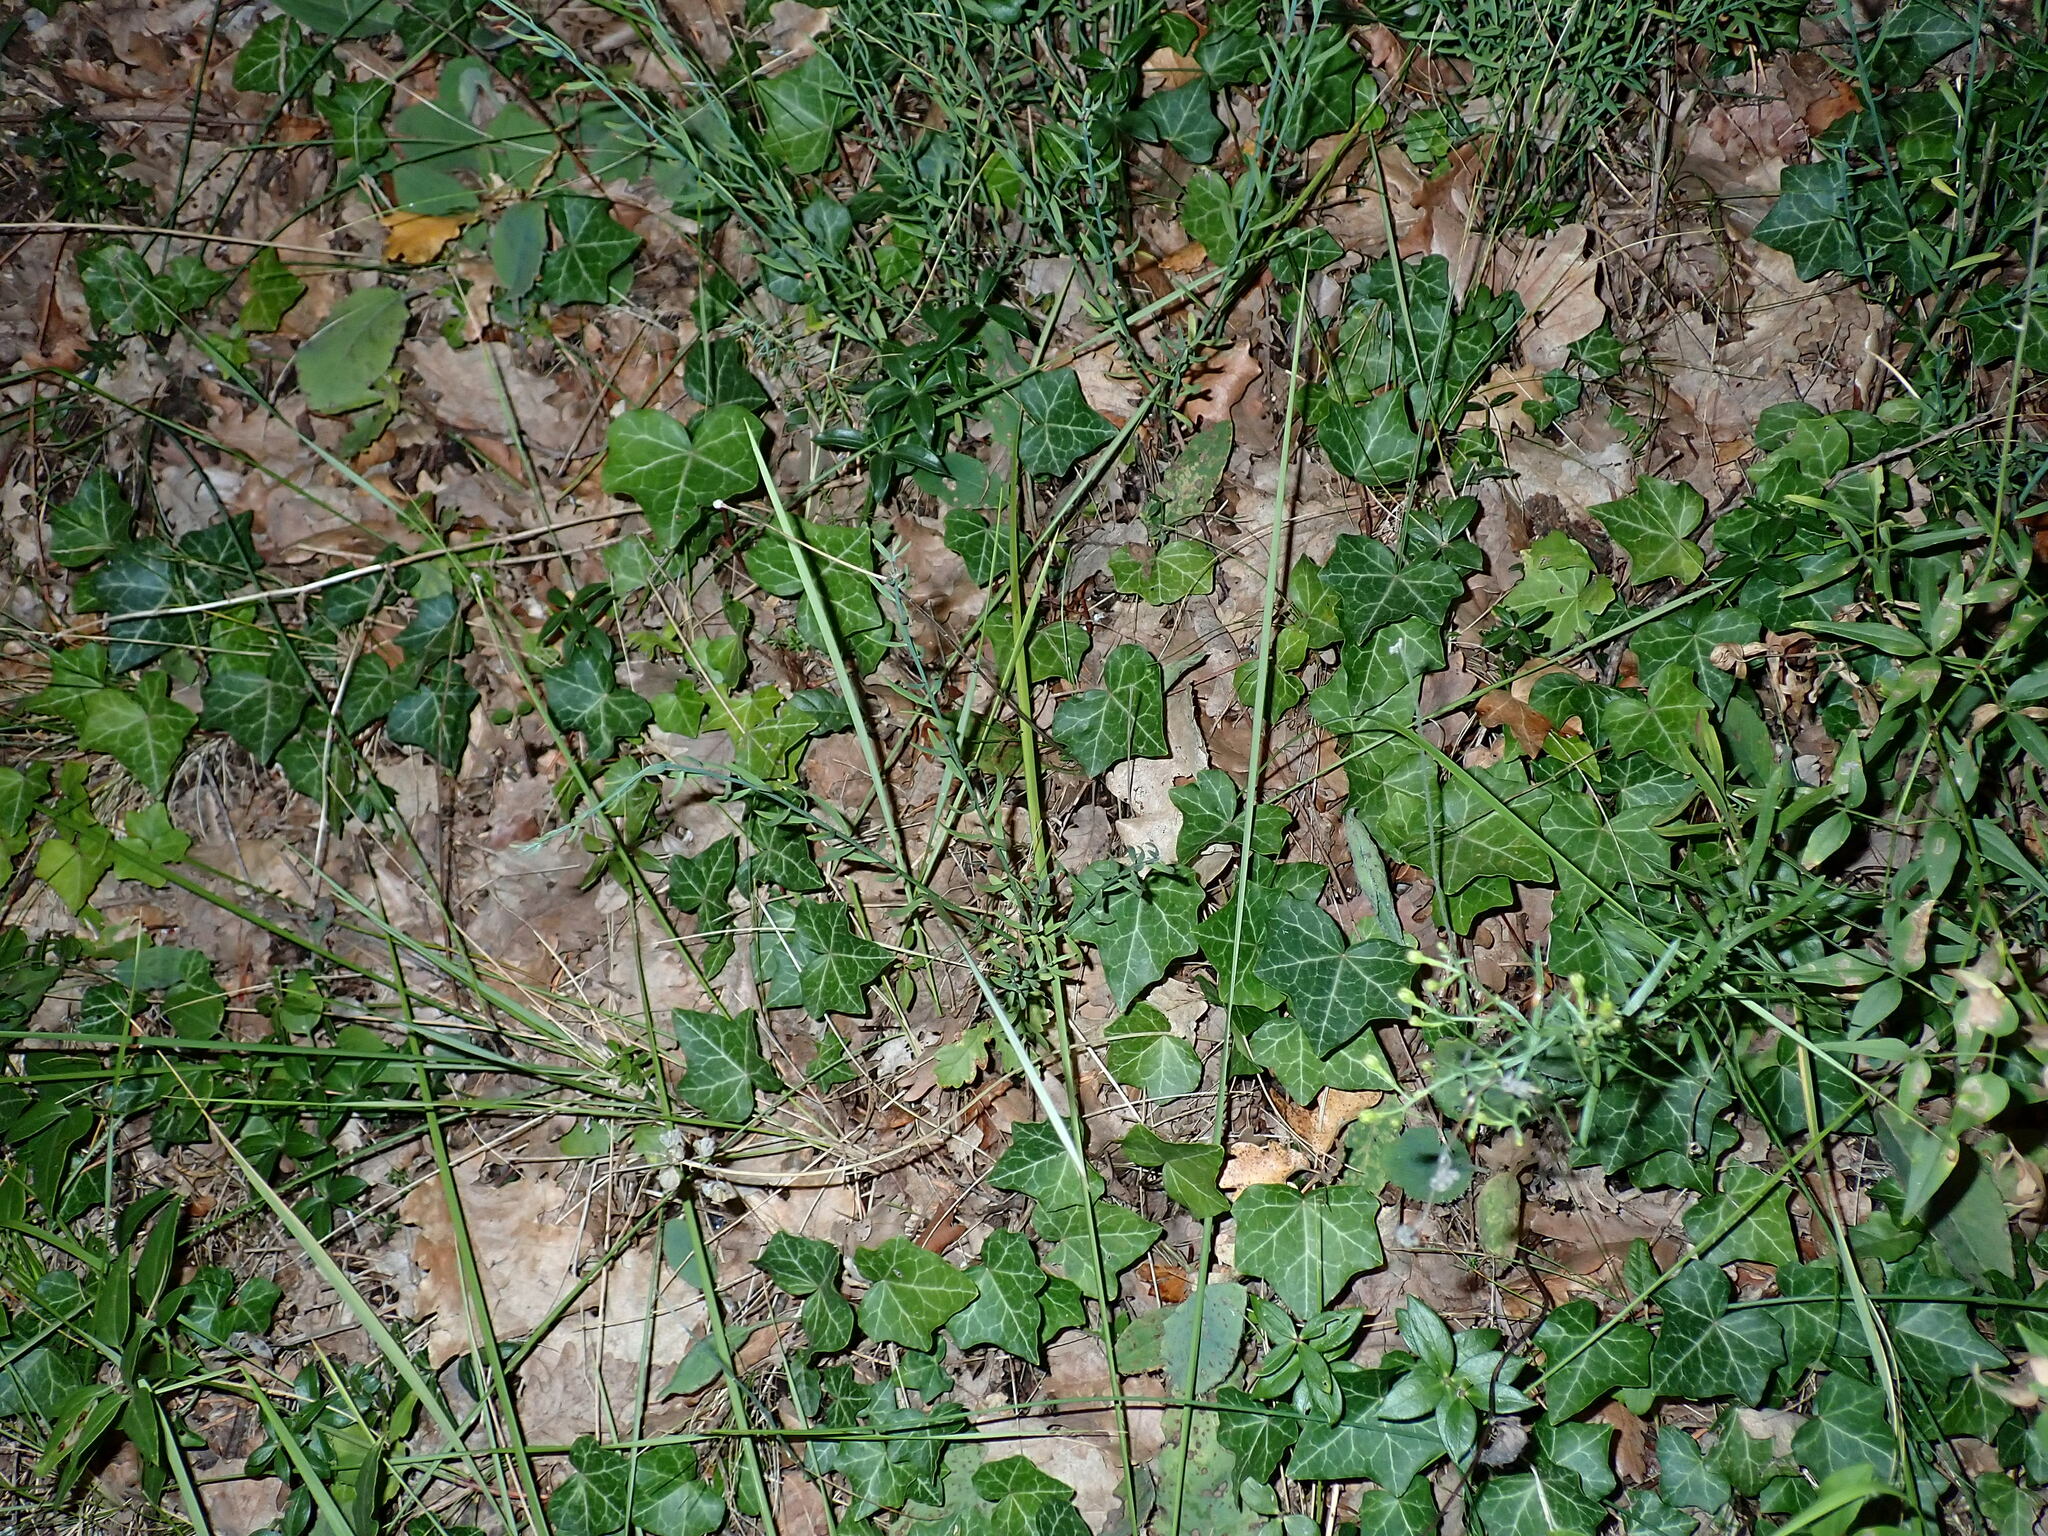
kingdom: Plantae
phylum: Tracheophyta
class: Magnoliopsida
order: Apiales
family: Araliaceae
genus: Hedera
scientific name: Hedera helix
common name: Ivy
